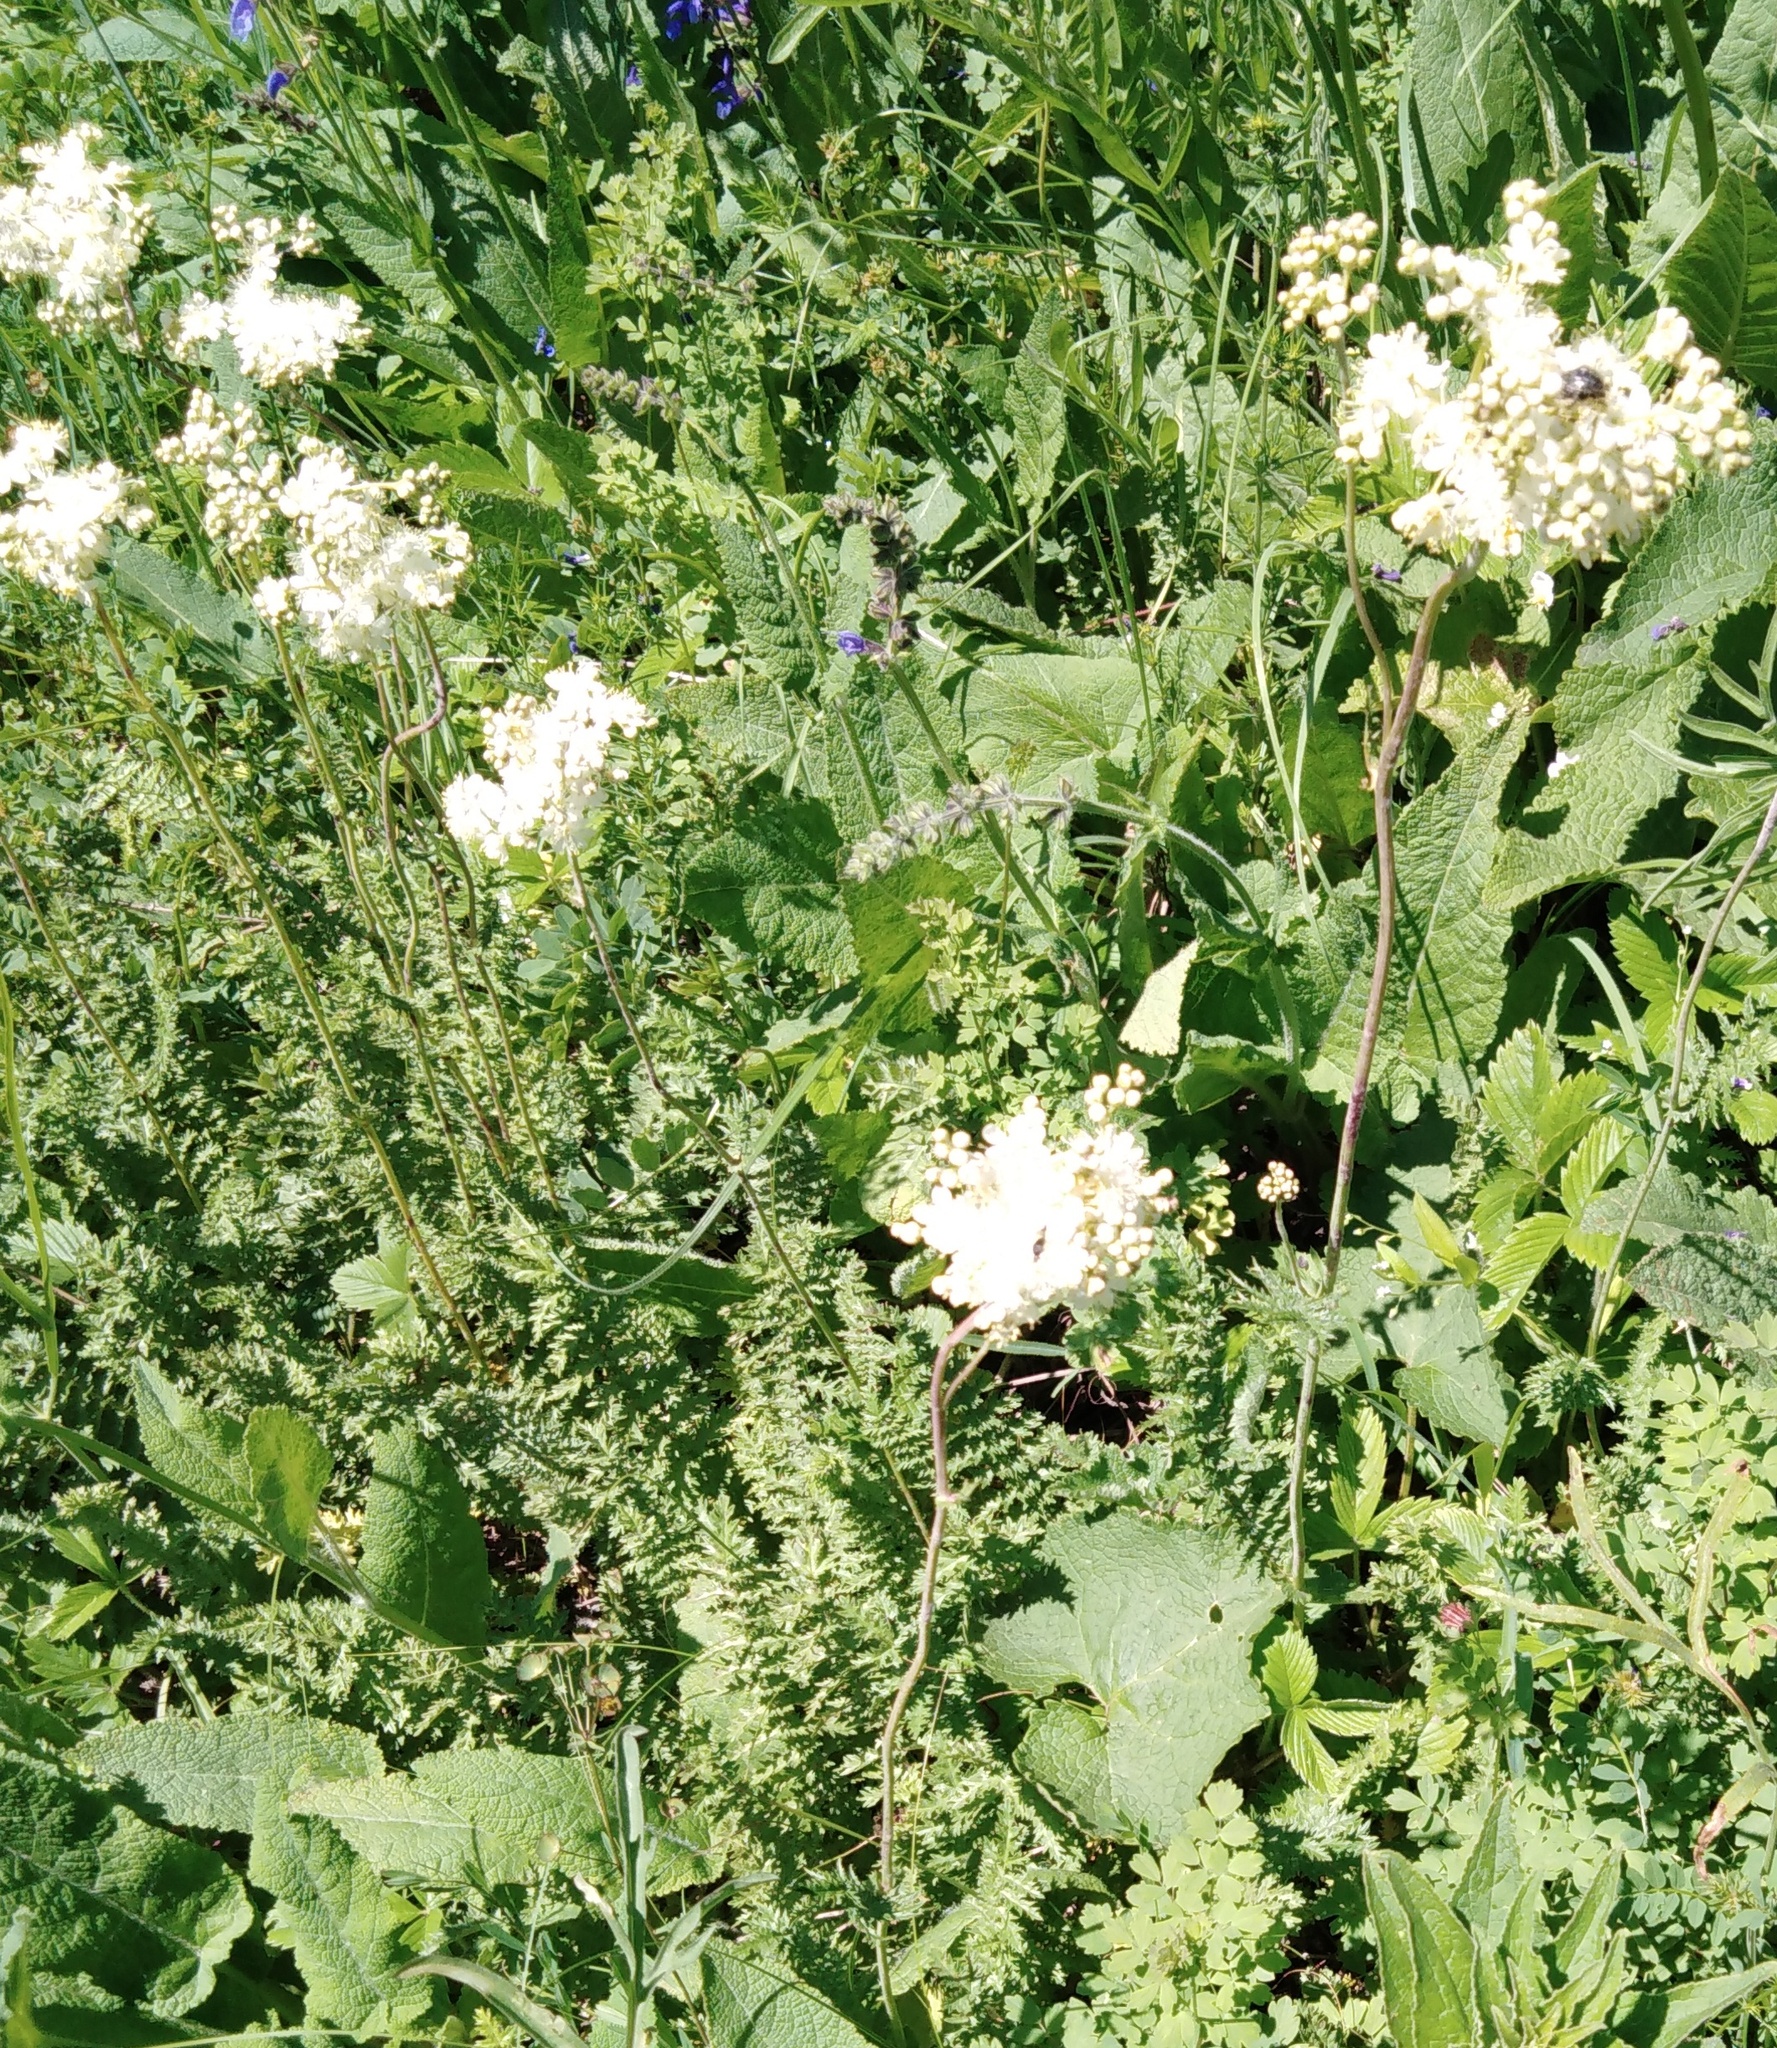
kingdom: Plantae
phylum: Tracheophyta
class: Magnoliopsida
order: Rosales
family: Rosaceae
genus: Filipendula
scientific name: Filipendula vulgaris
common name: Dropwort
